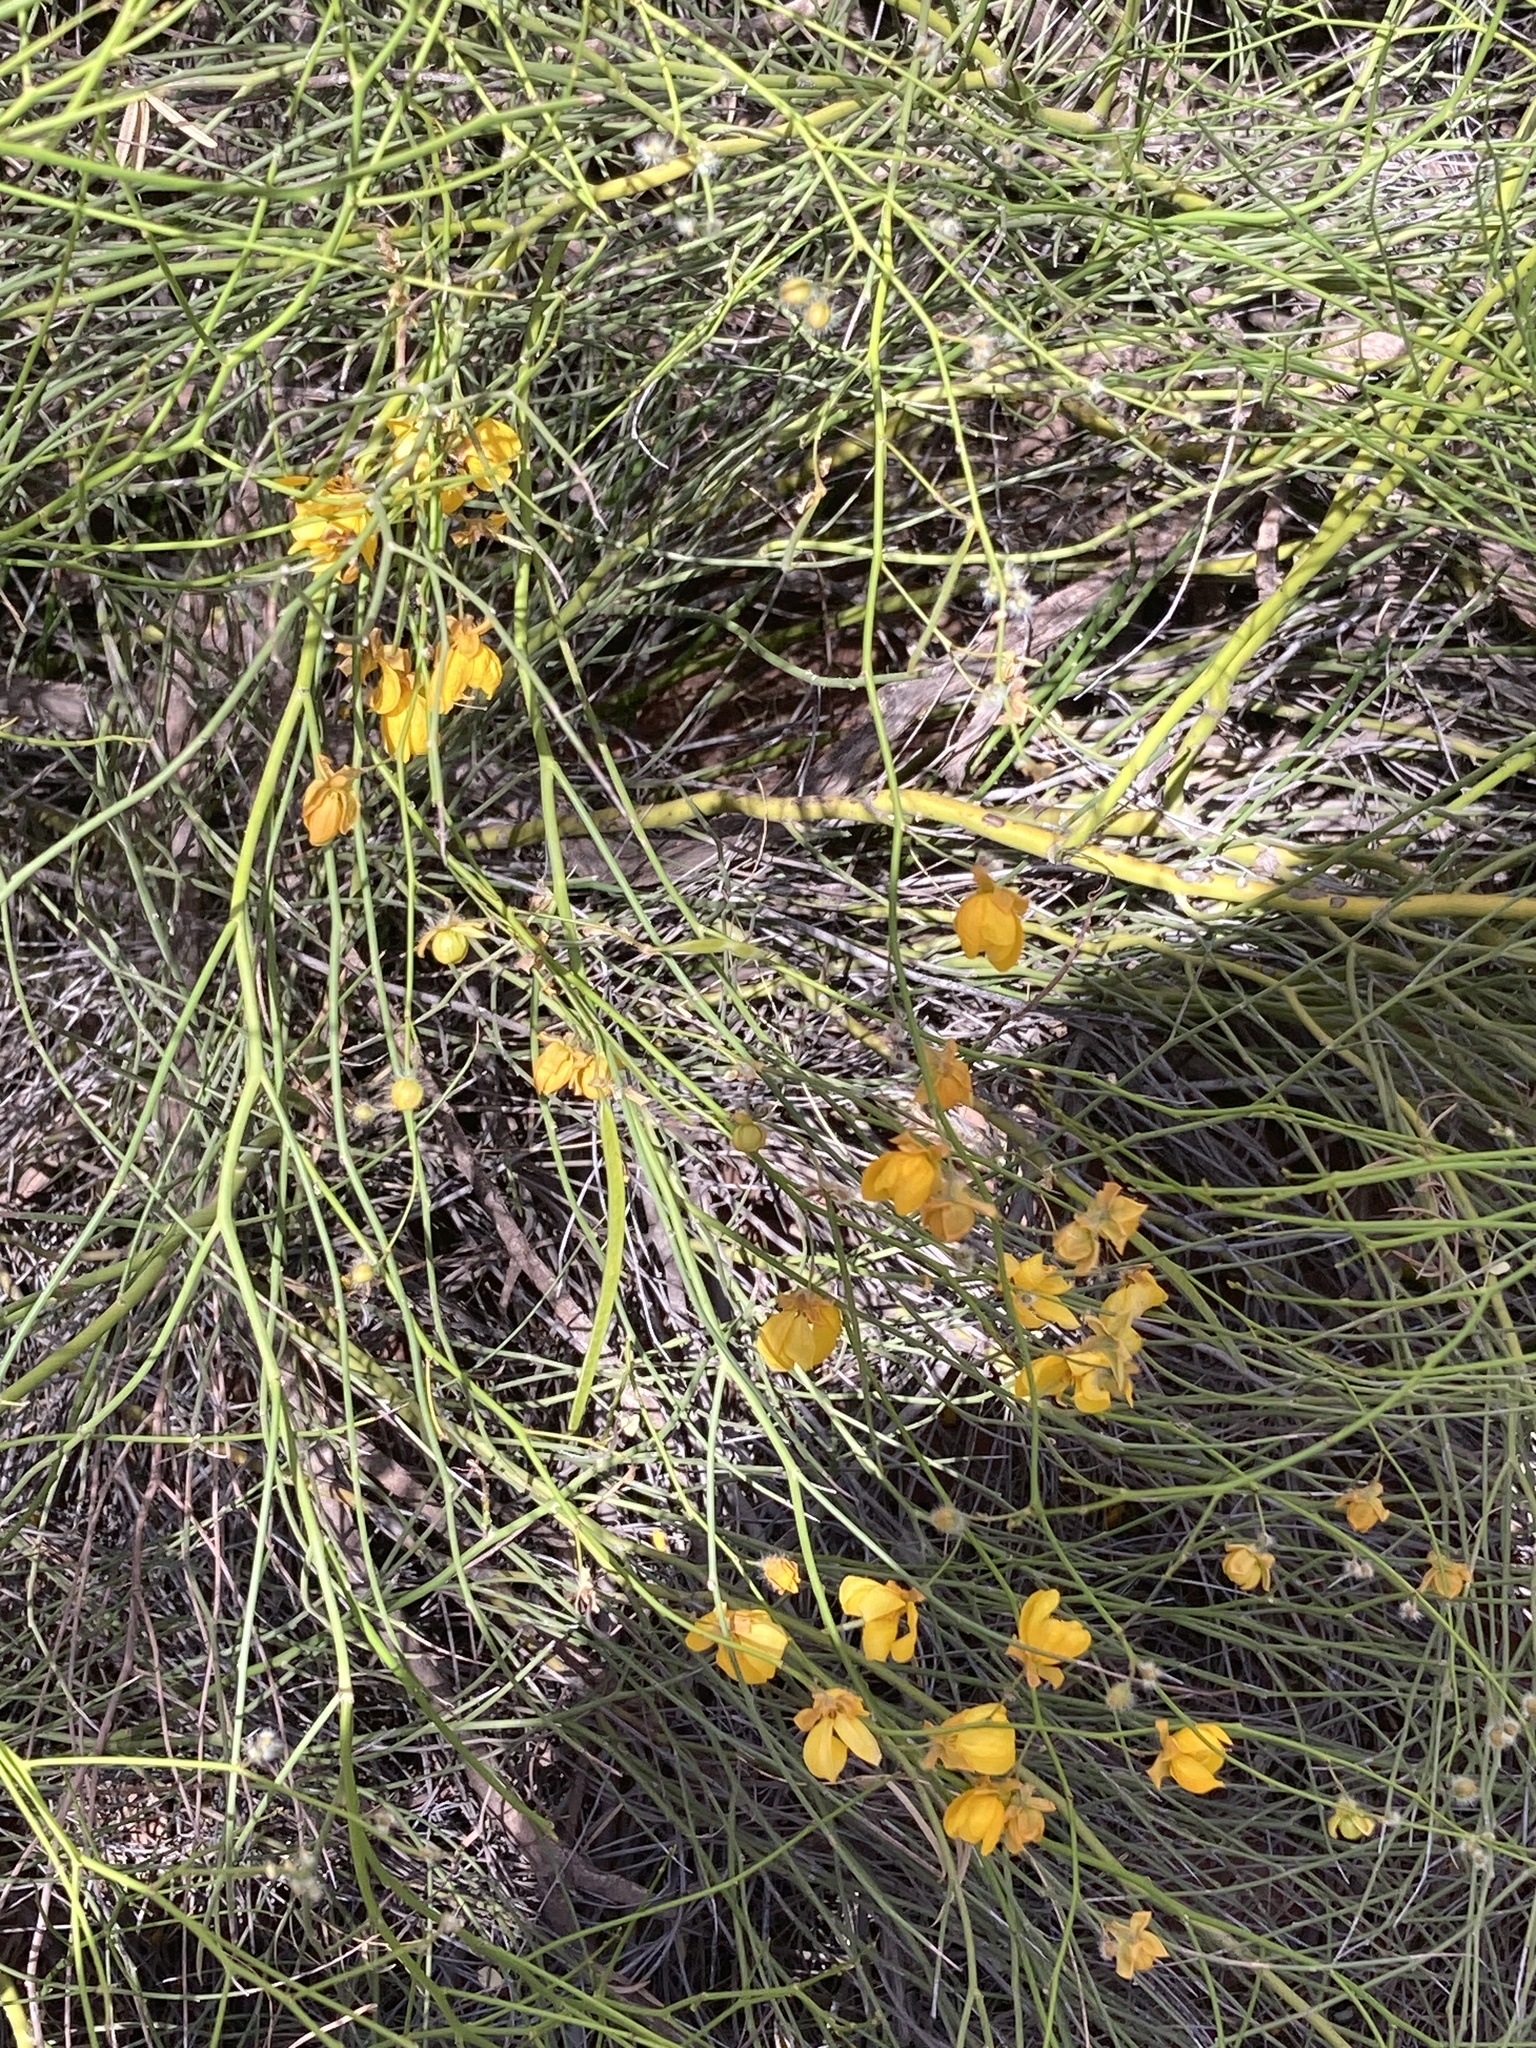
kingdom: Plantae
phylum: Tracheophyta
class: Magnoliopsida
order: Fabales
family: Fabaceae
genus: Senna
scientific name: Senna aphylla
